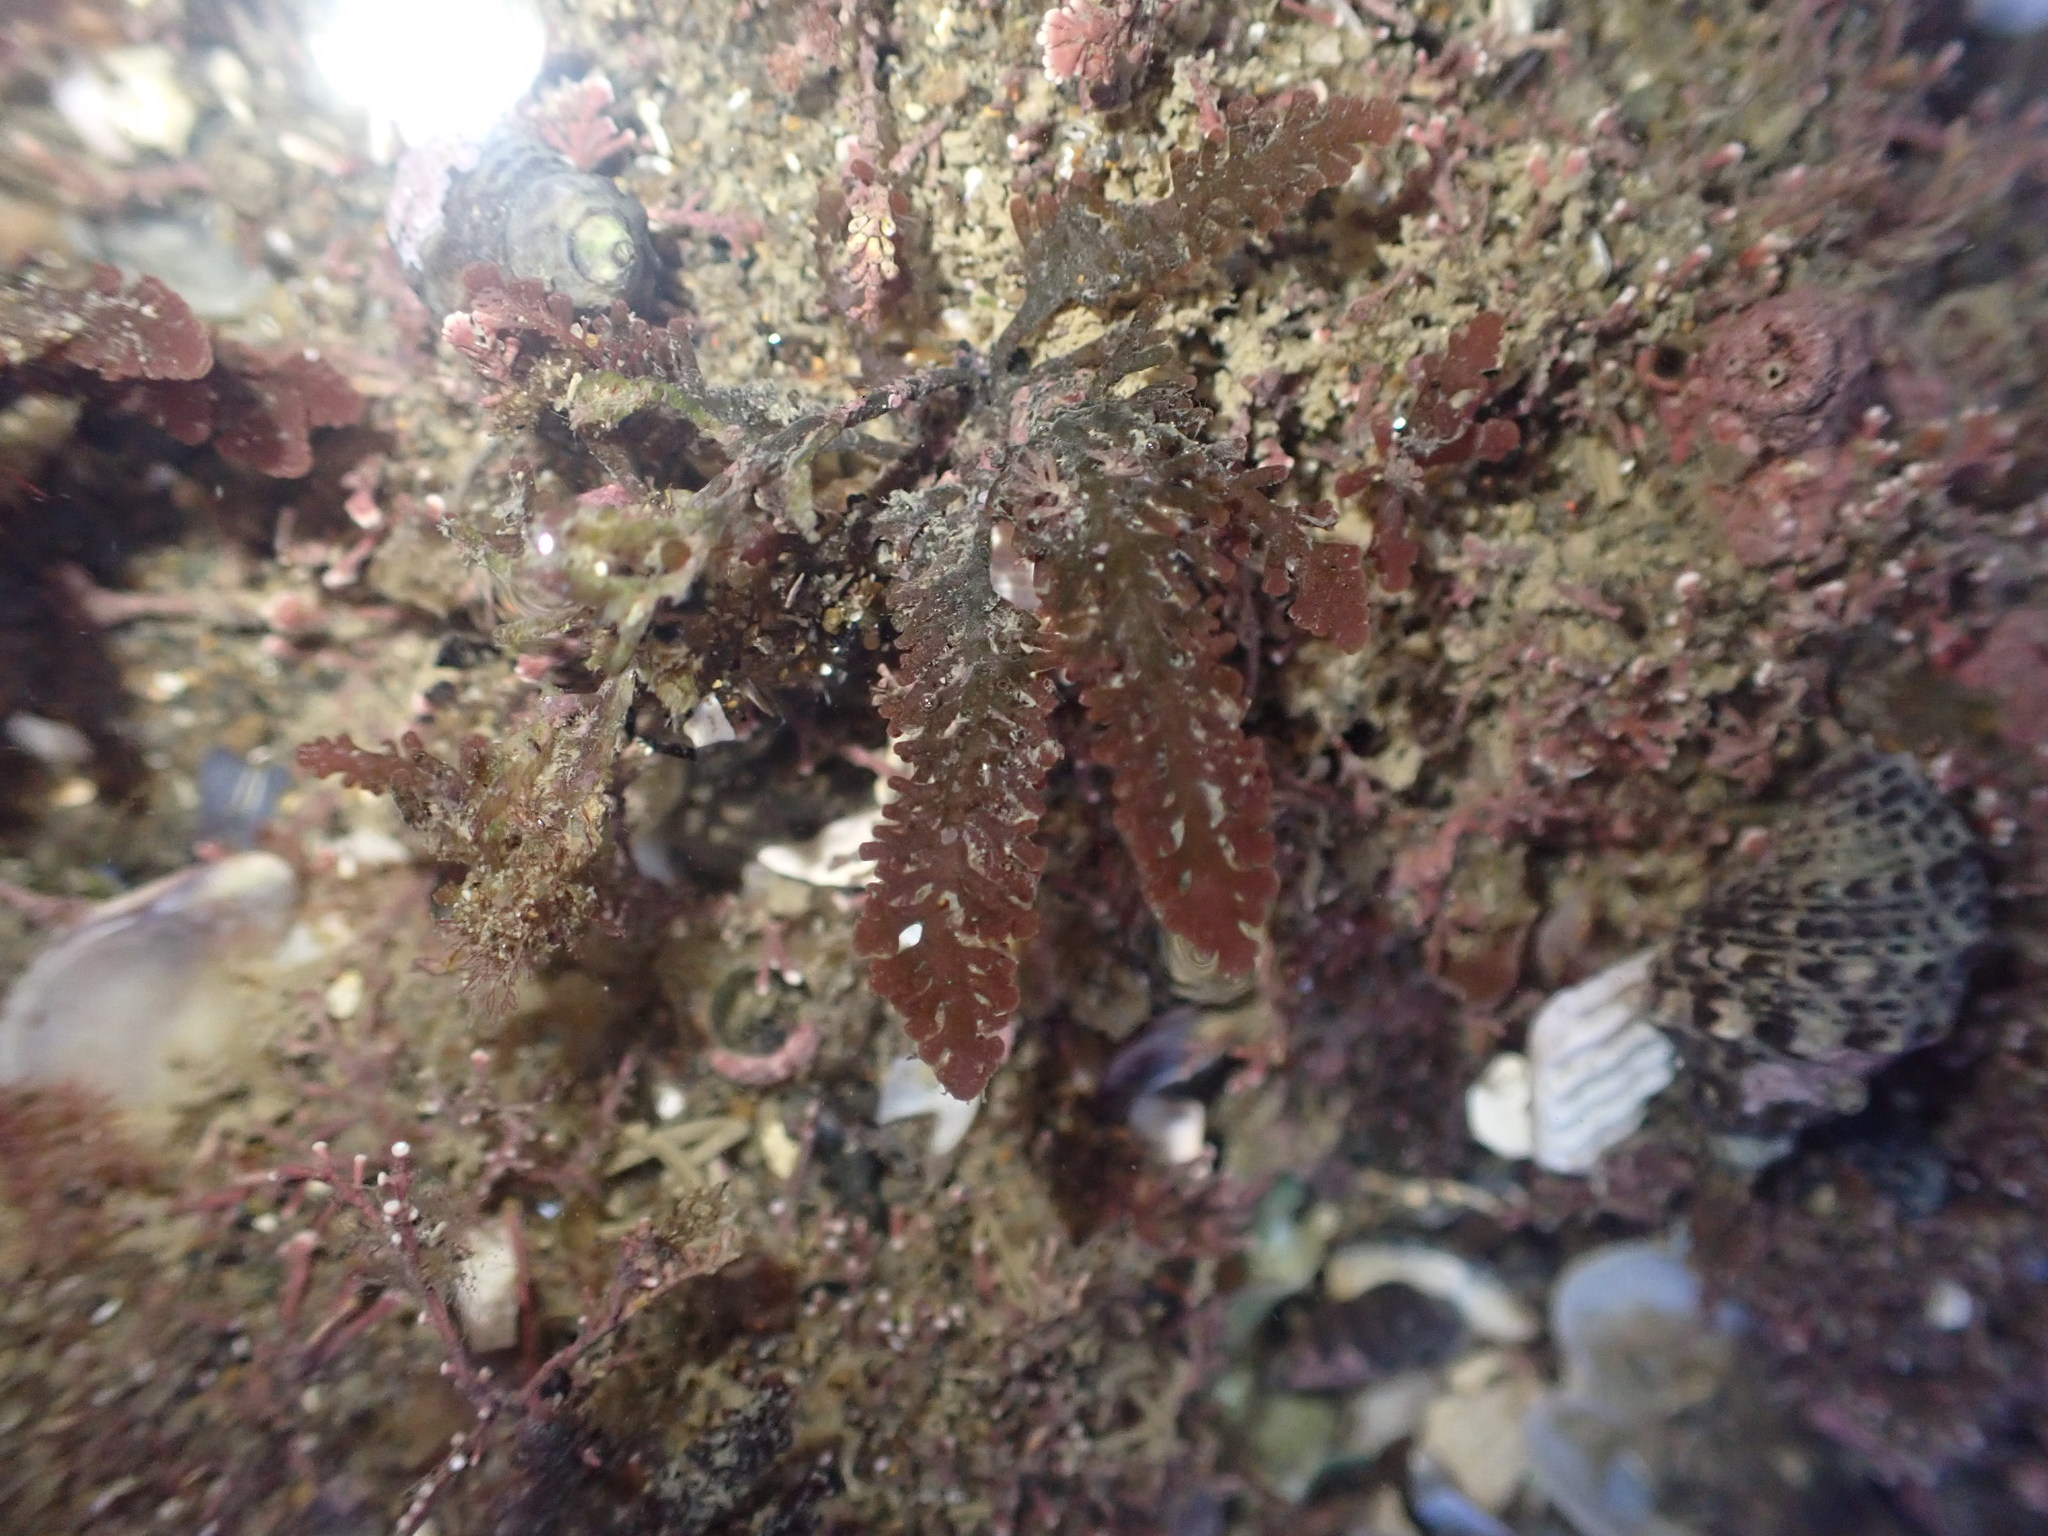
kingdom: Plantae
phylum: Rhodophyta
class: Florideophyceae
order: Ceramiales
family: Rhodomelaceae
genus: Laurencia
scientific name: Laurencia distichophylla
